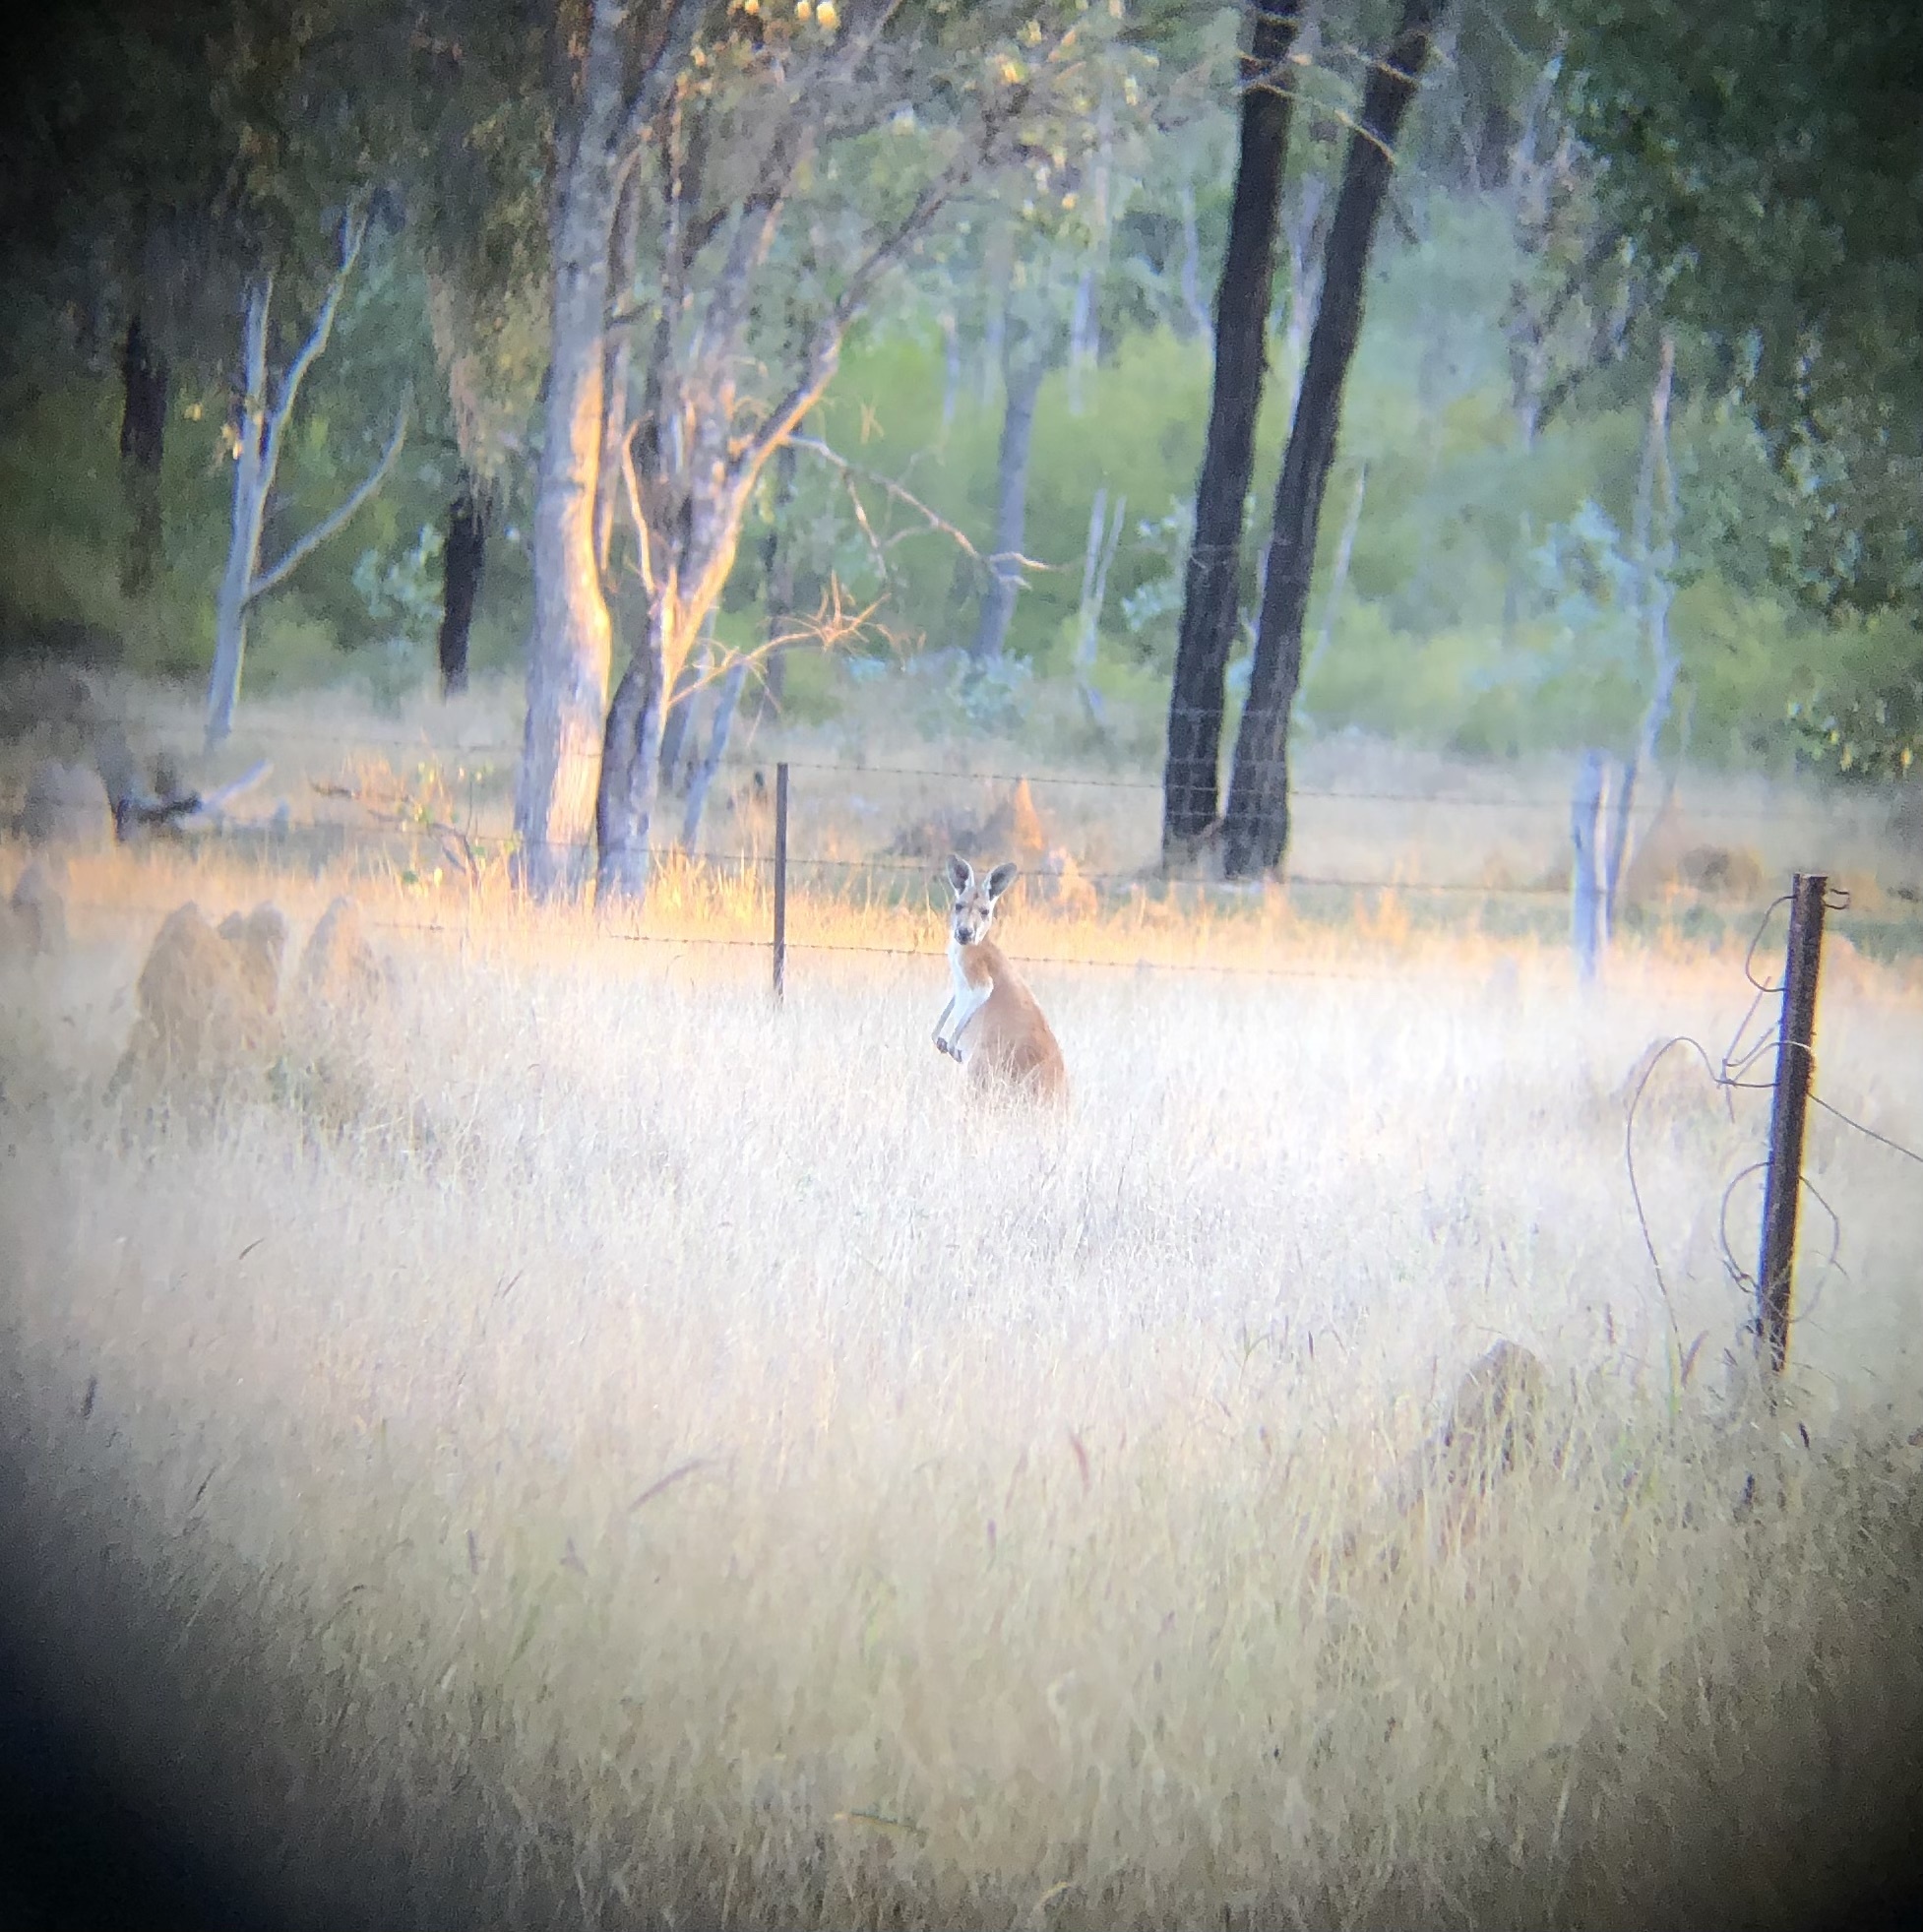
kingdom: Animalia
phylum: Chordata
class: Mammalia
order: Diprotodontia
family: Macropodidae
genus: Macropus
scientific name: Macropus rufus
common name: Red kangaroo
